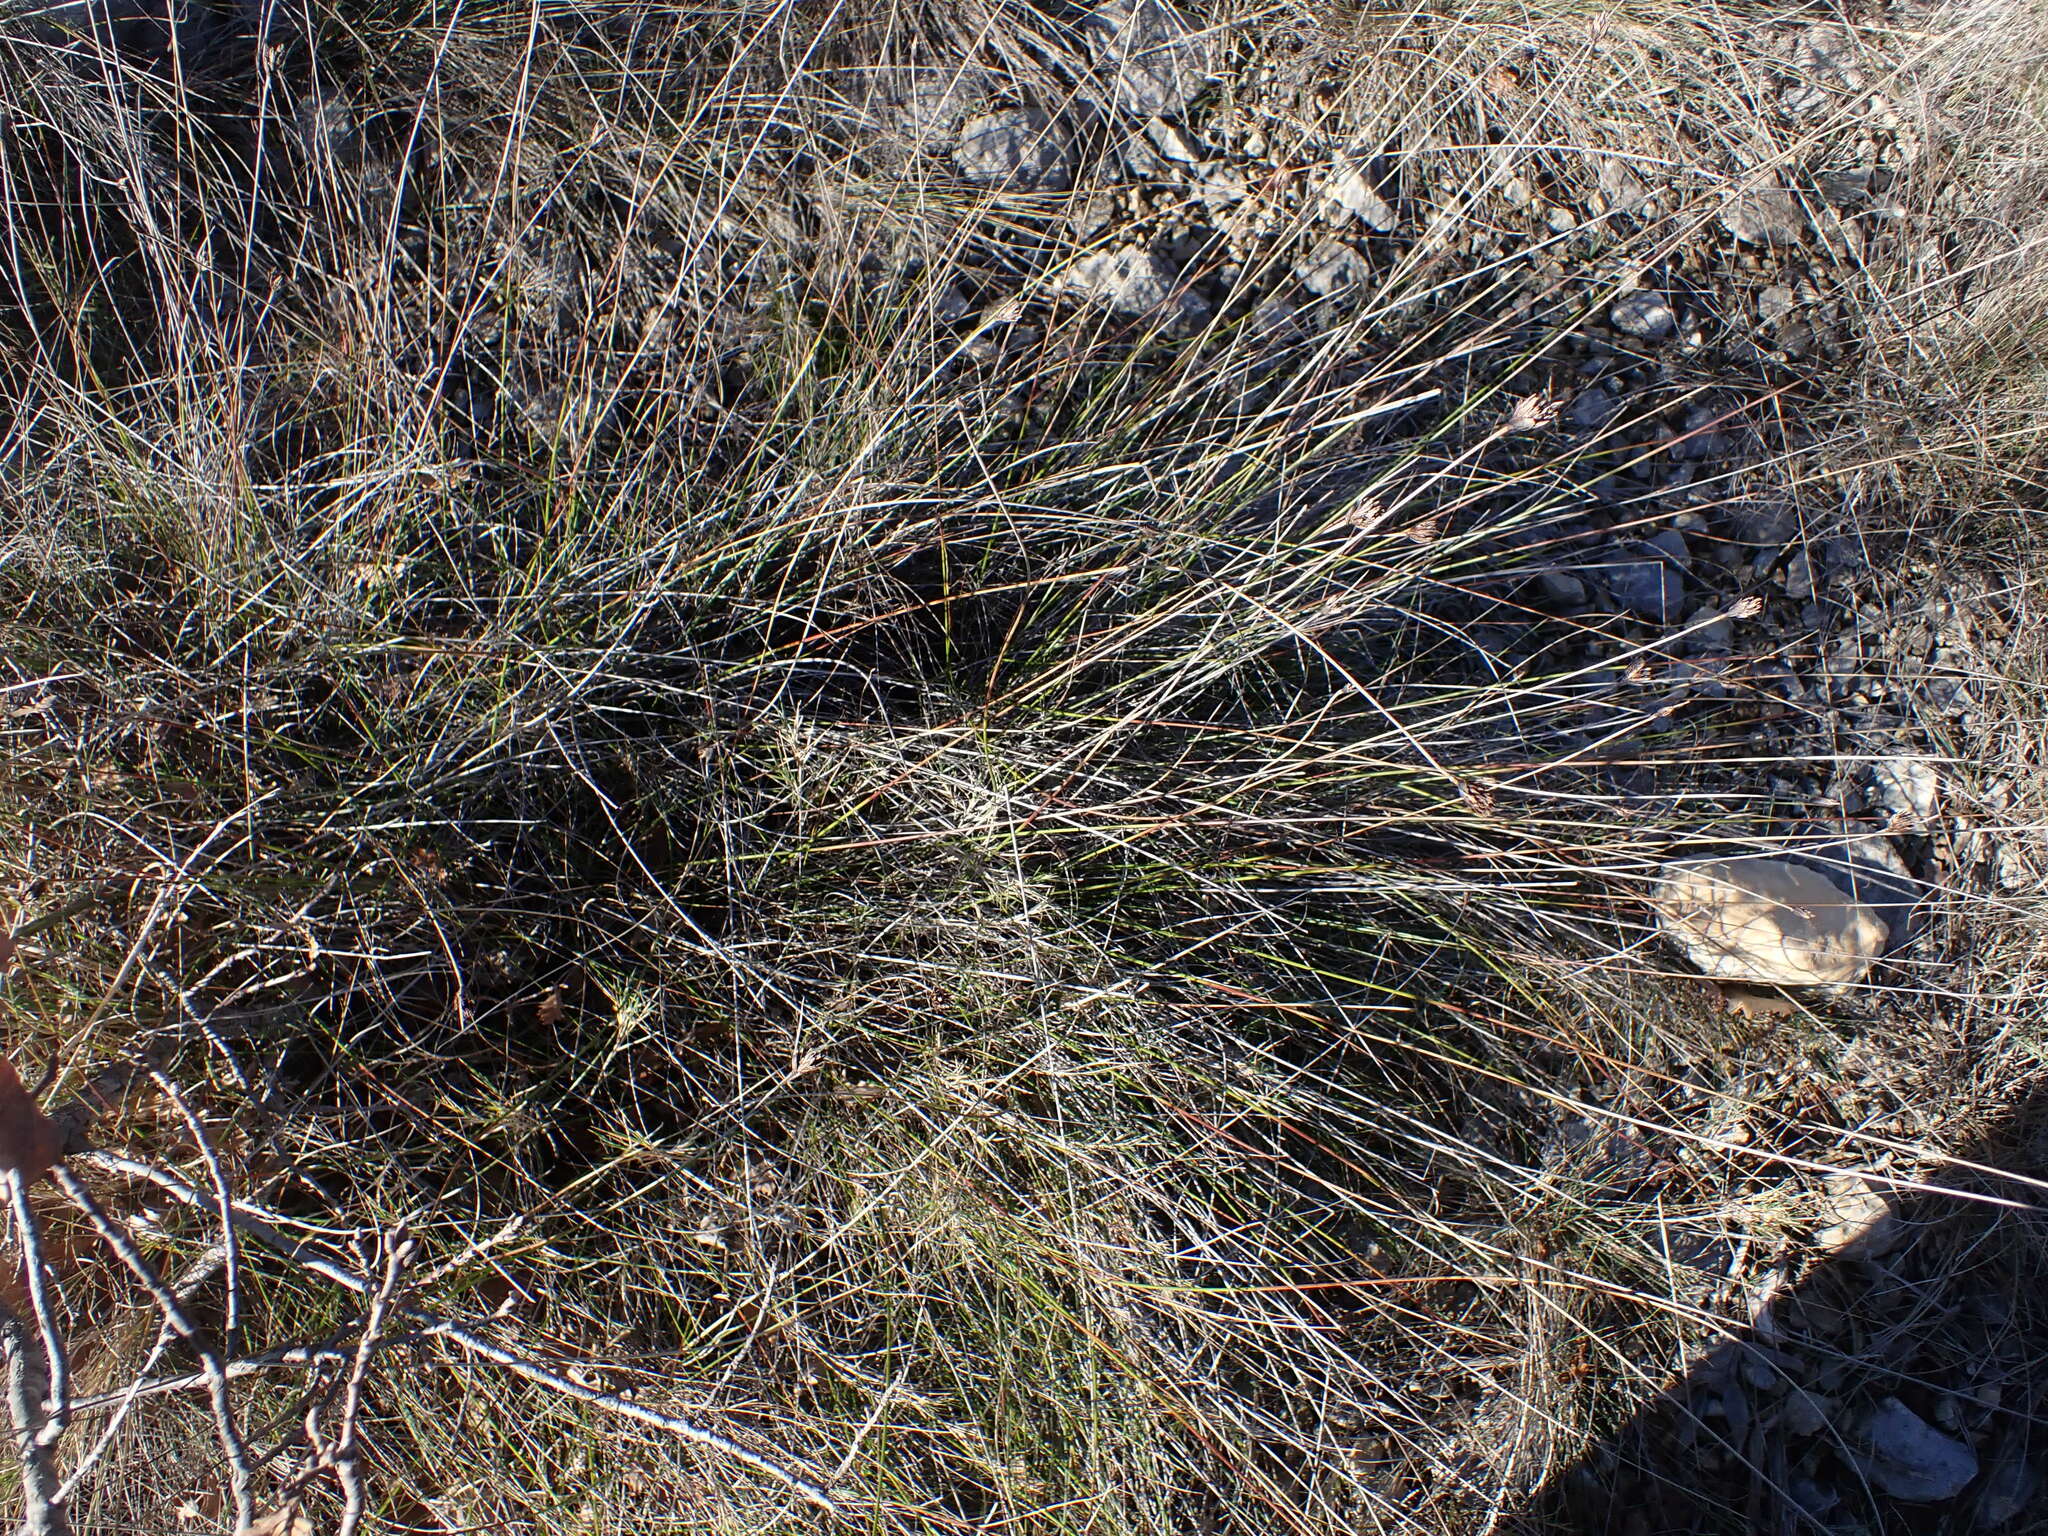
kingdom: Plantae
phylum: Tracheophyta
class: Liliopsida
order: Poales
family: Cyperaceae
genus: Schoenus
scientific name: Schoenus nigricans
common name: Black bog-rush
